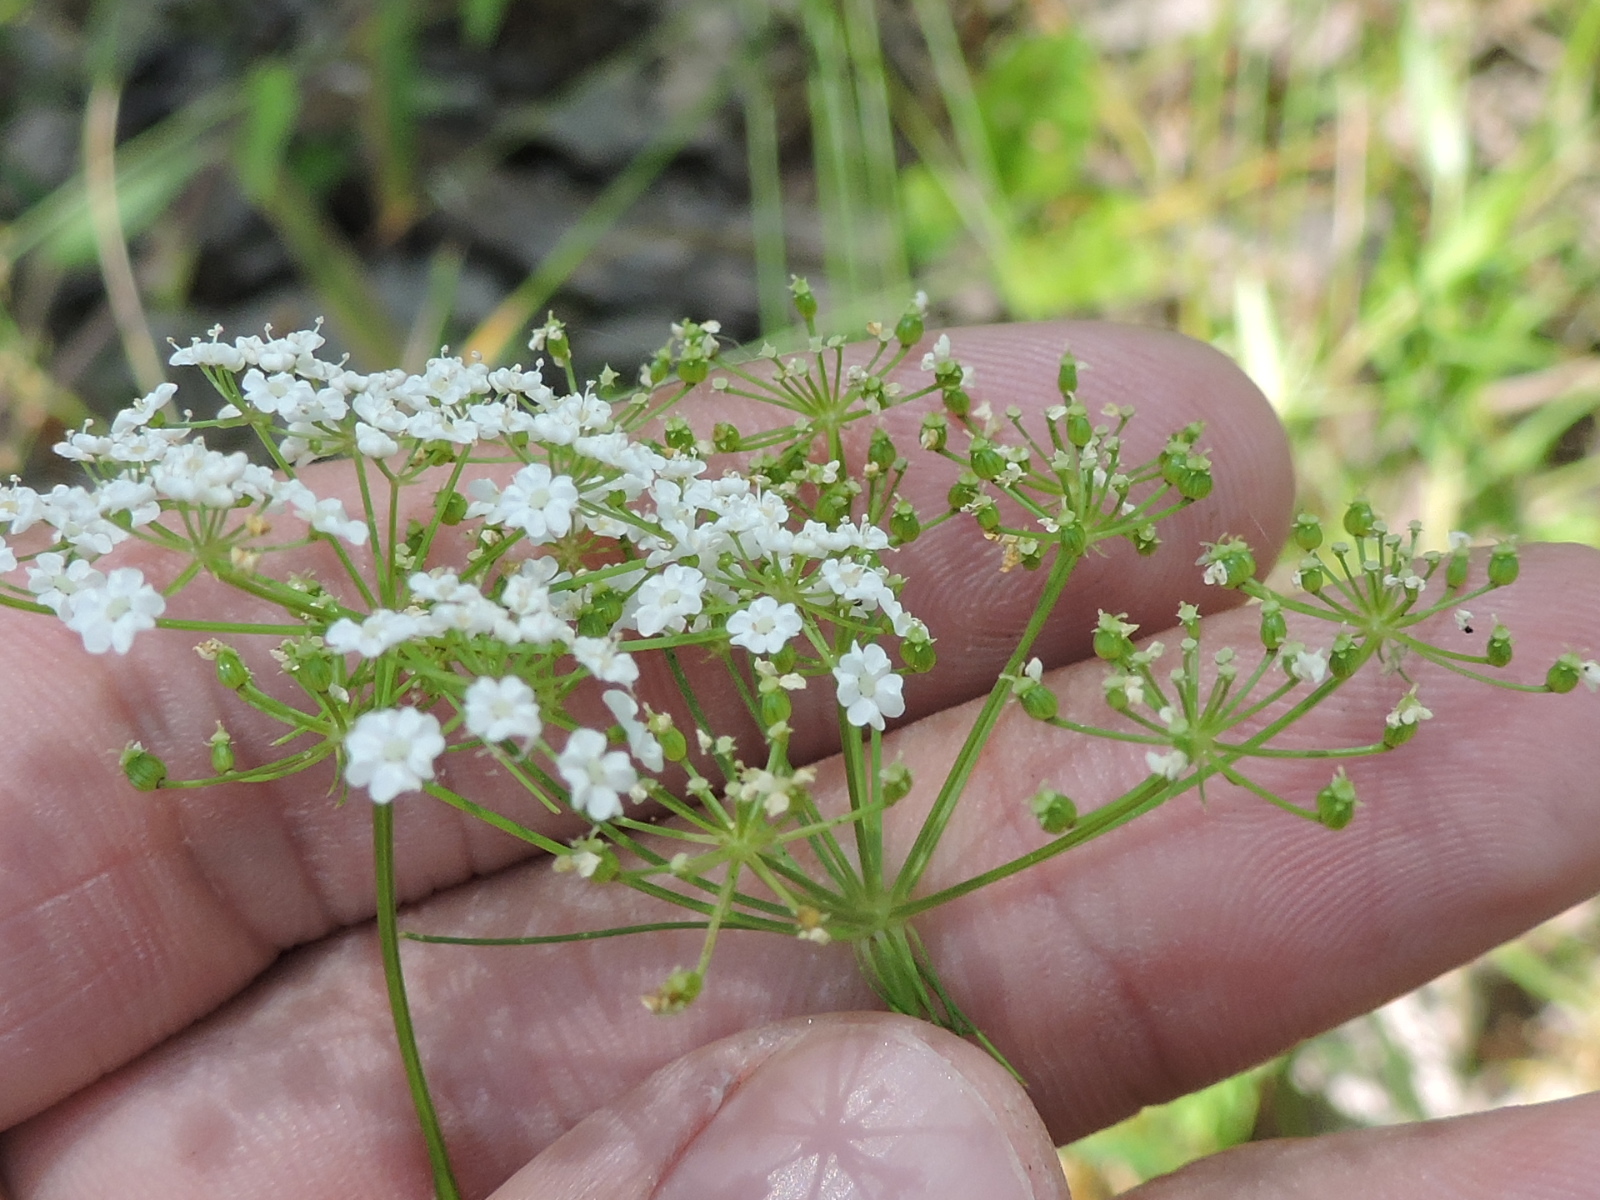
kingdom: Plantae
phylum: Tracheophyta
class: Magnoliopsida
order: Apiales
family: Apiaceae
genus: Ptilimnium
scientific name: Ptilimnium nuttallii
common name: Ozark bishop's-weed
